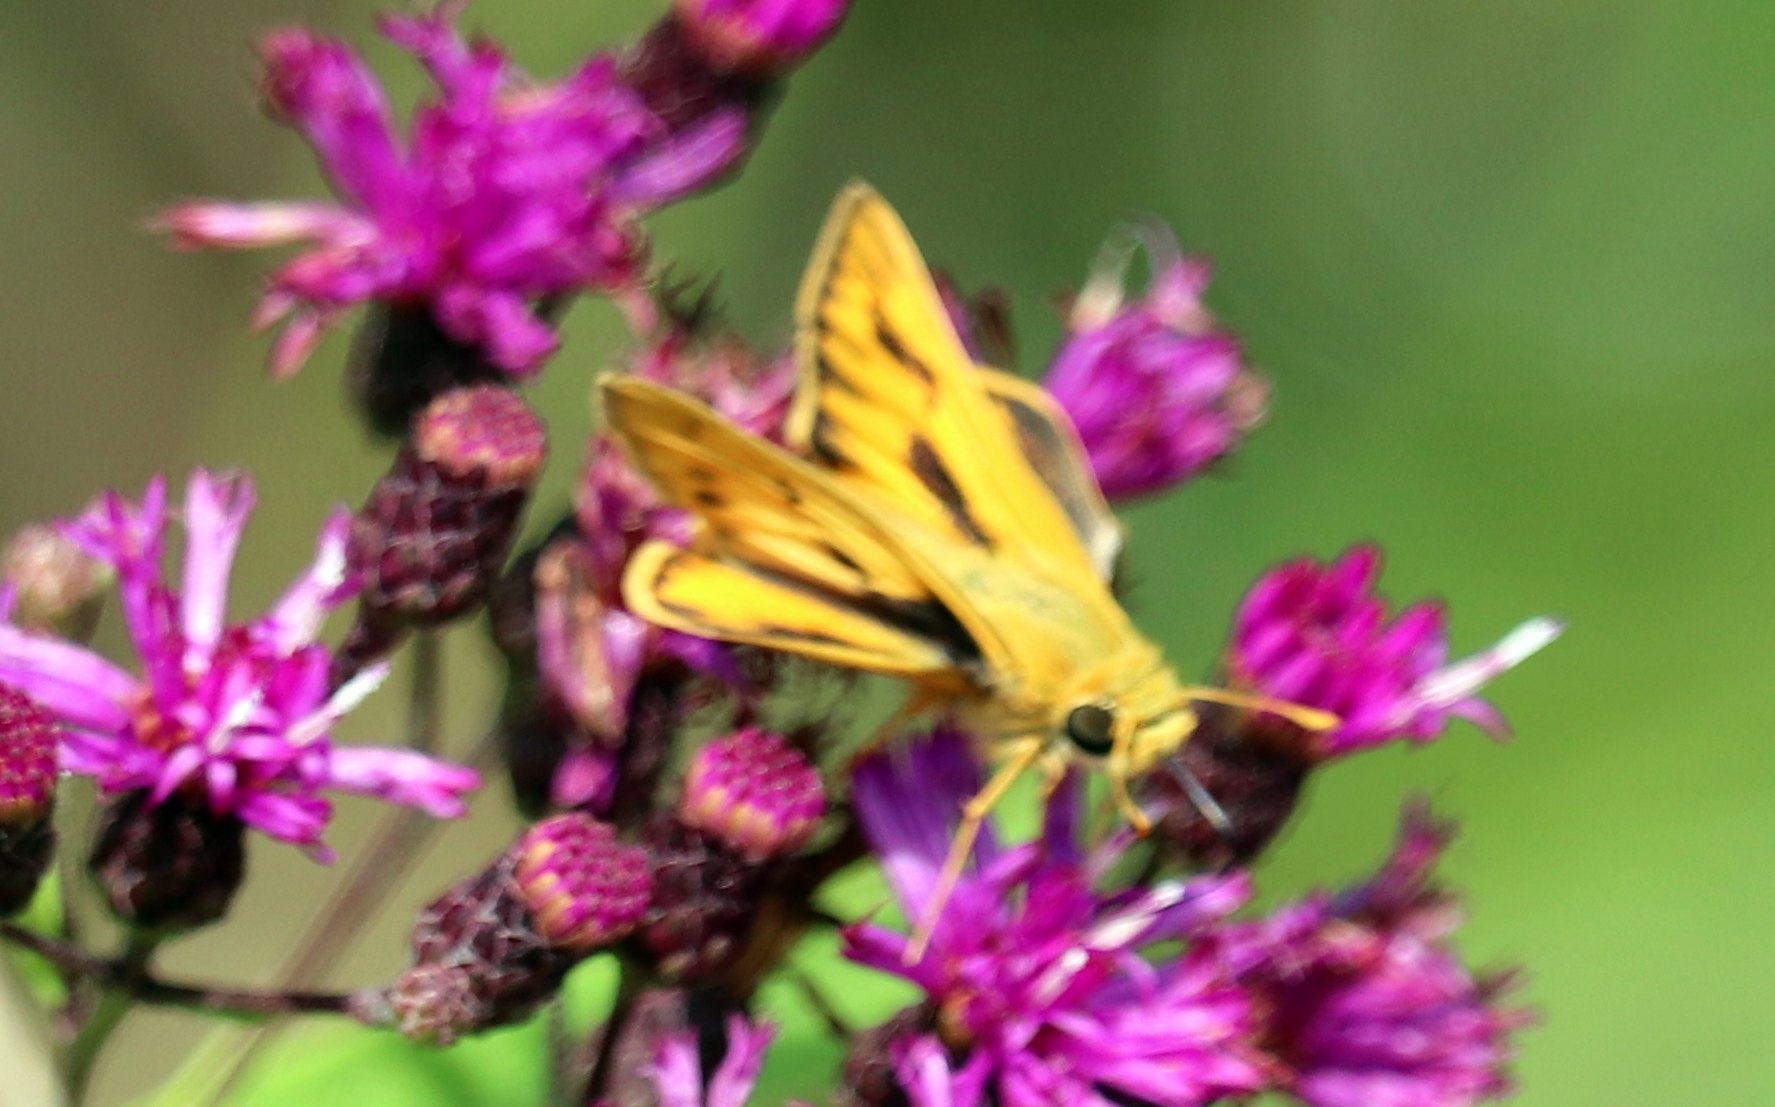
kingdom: Animalia
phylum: Arthropoda
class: Insecta
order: Lepidoptera
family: Hesperiidae
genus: Hylephila
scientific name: Hylephila phyleus
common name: Fiery skipper
